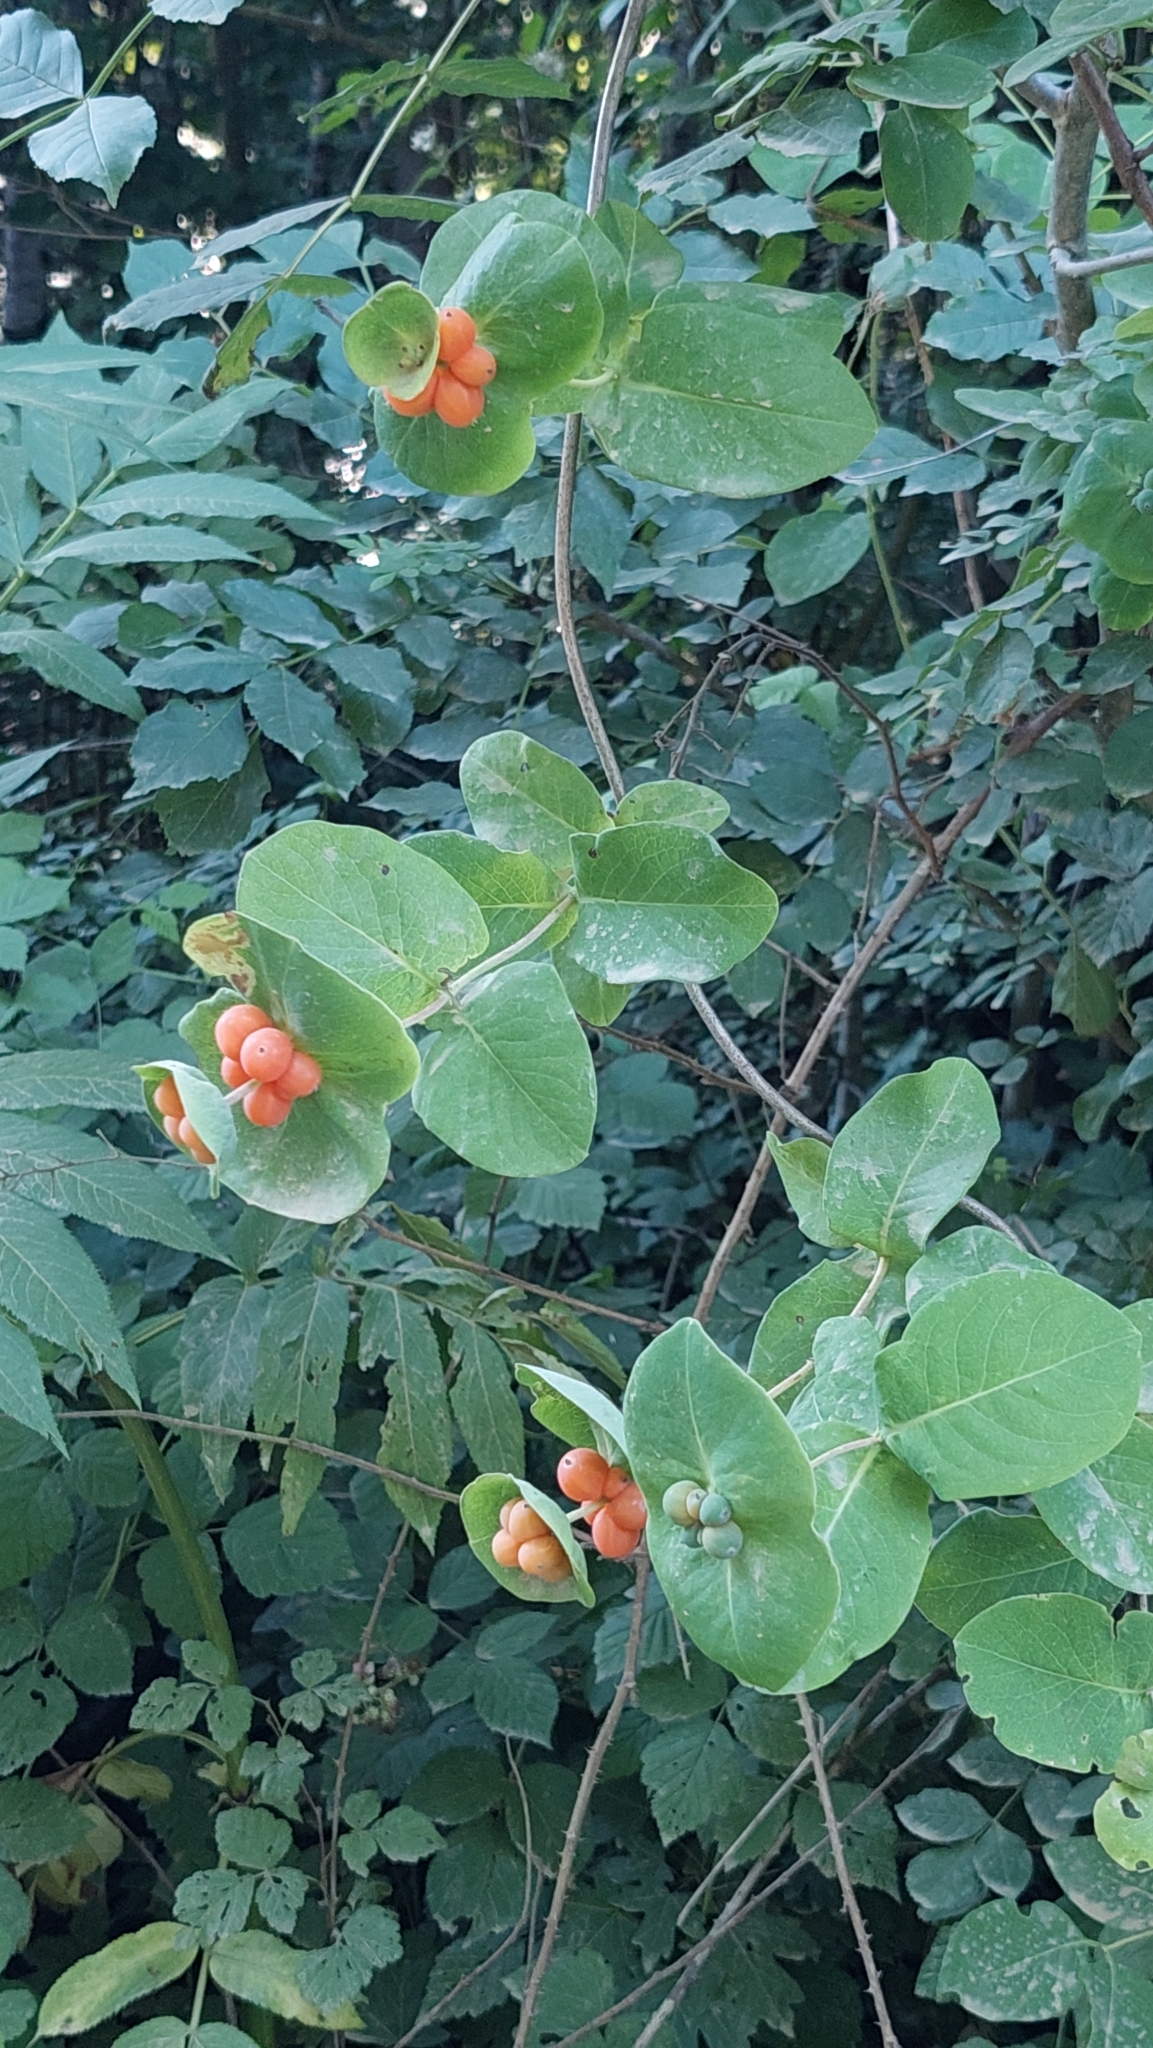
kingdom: Plantae
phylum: Tracheophyta
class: Magnoliopsida
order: Dipsacales
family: Caprifoliaceae
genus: Lonicera
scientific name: Lonicera caprifolium
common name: Perfoliate honeysuckle
